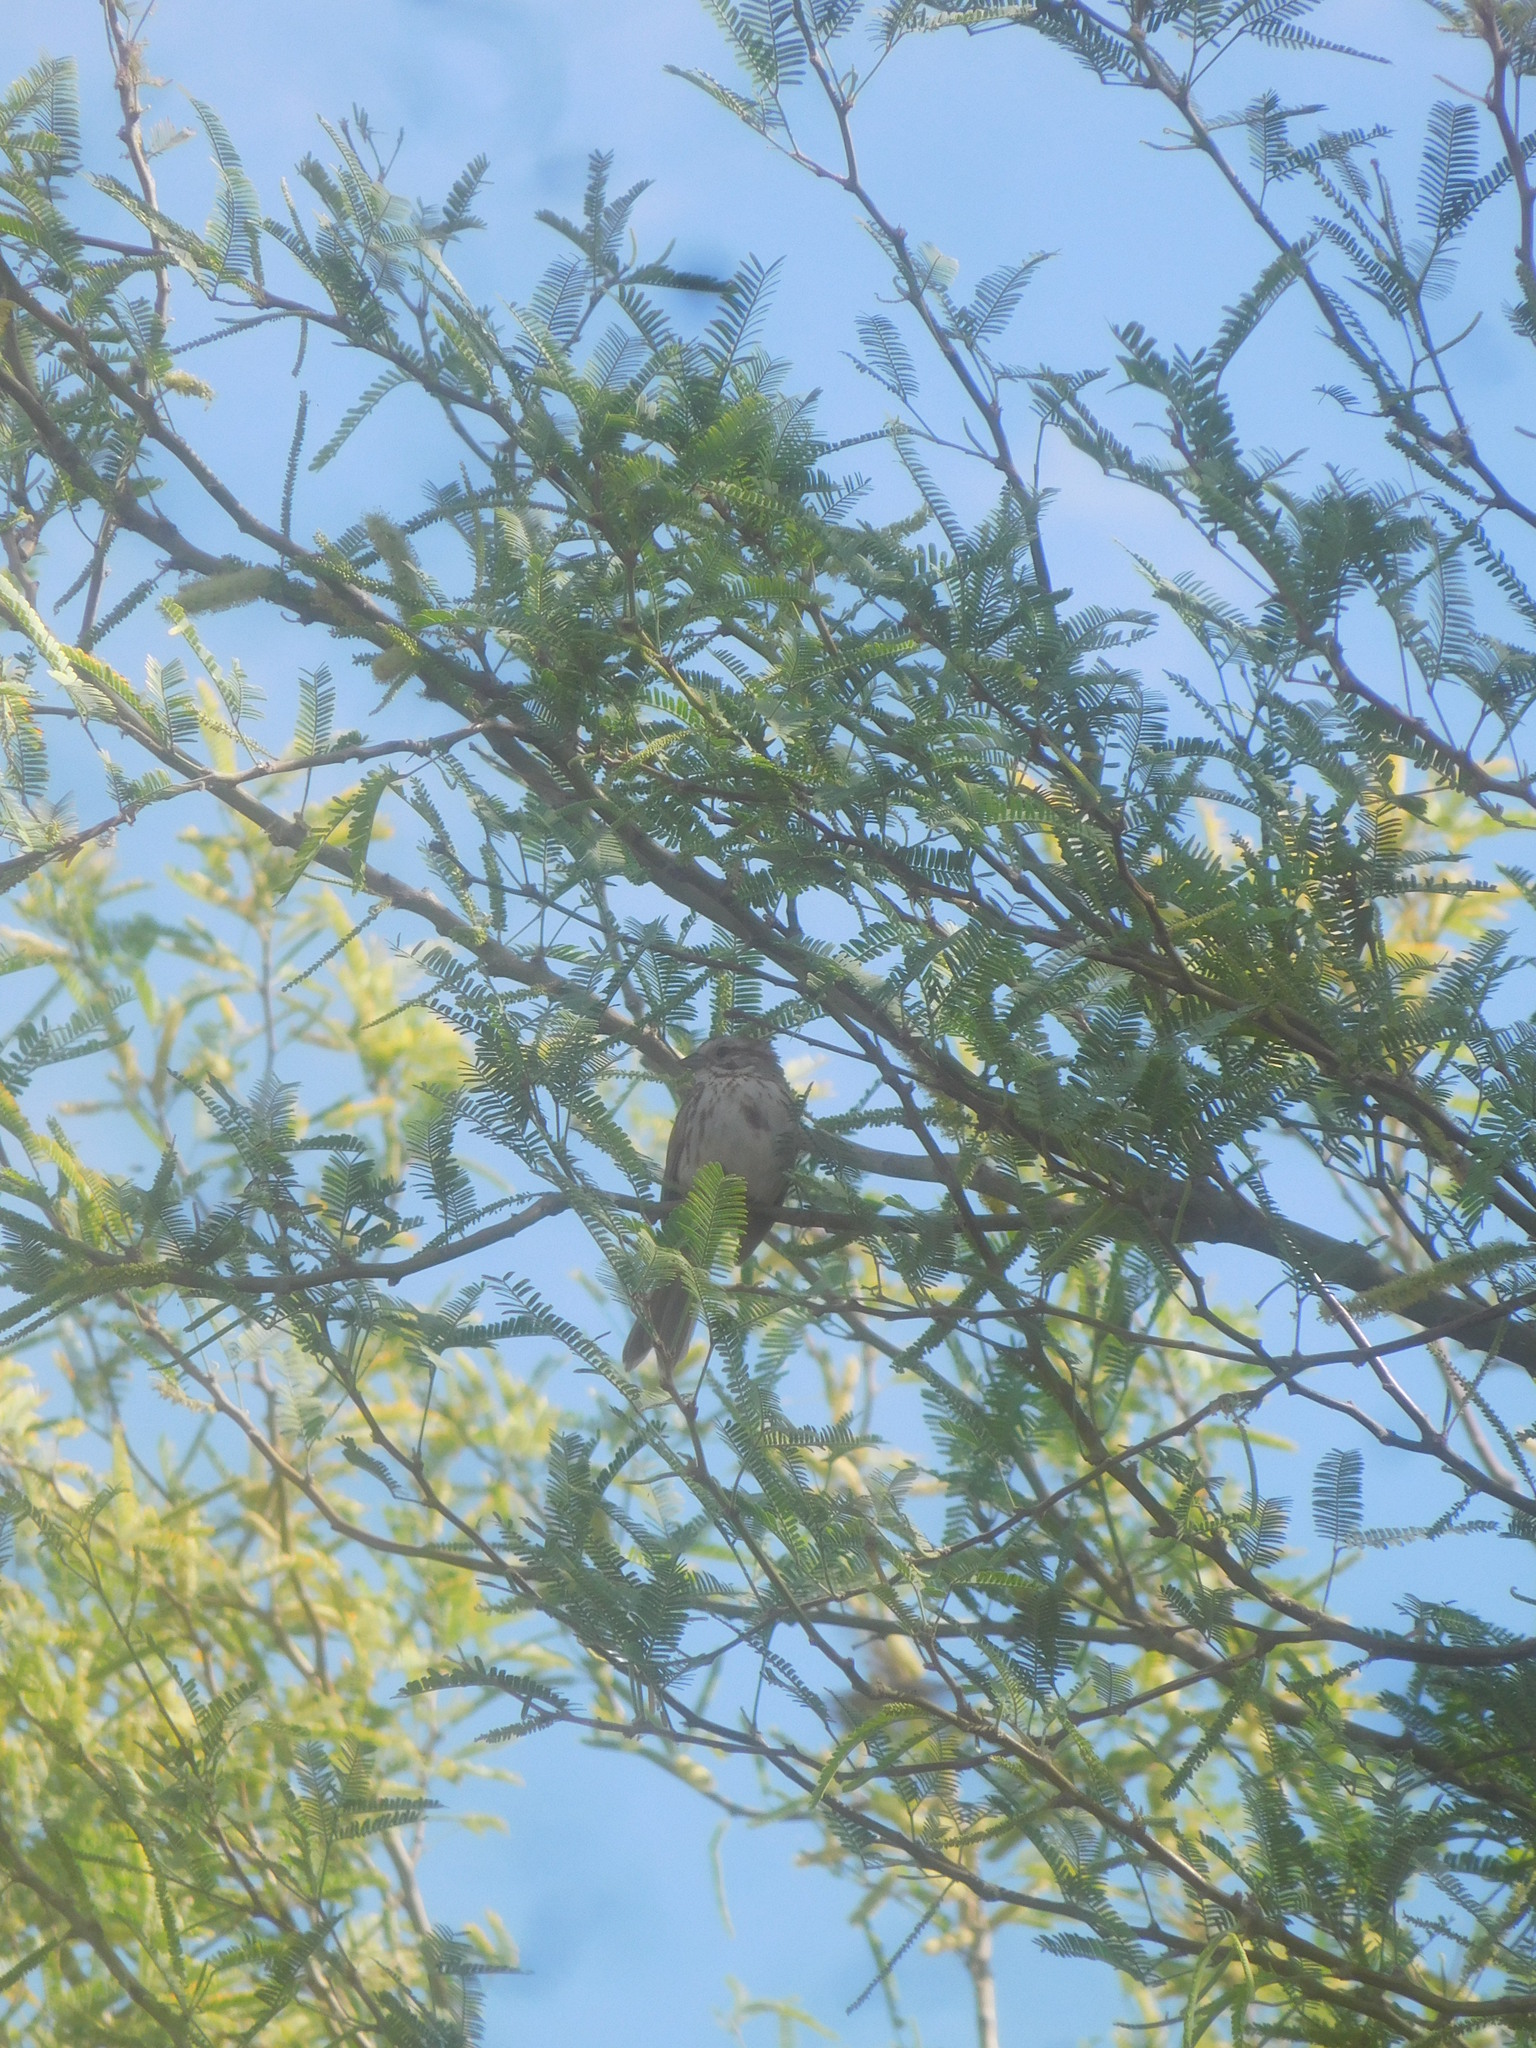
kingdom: Animalia
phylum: Chordata
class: Aves
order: Passeriformes
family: Passerellidae
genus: Melospiza
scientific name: Melospiza melodia
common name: Song sparrow
